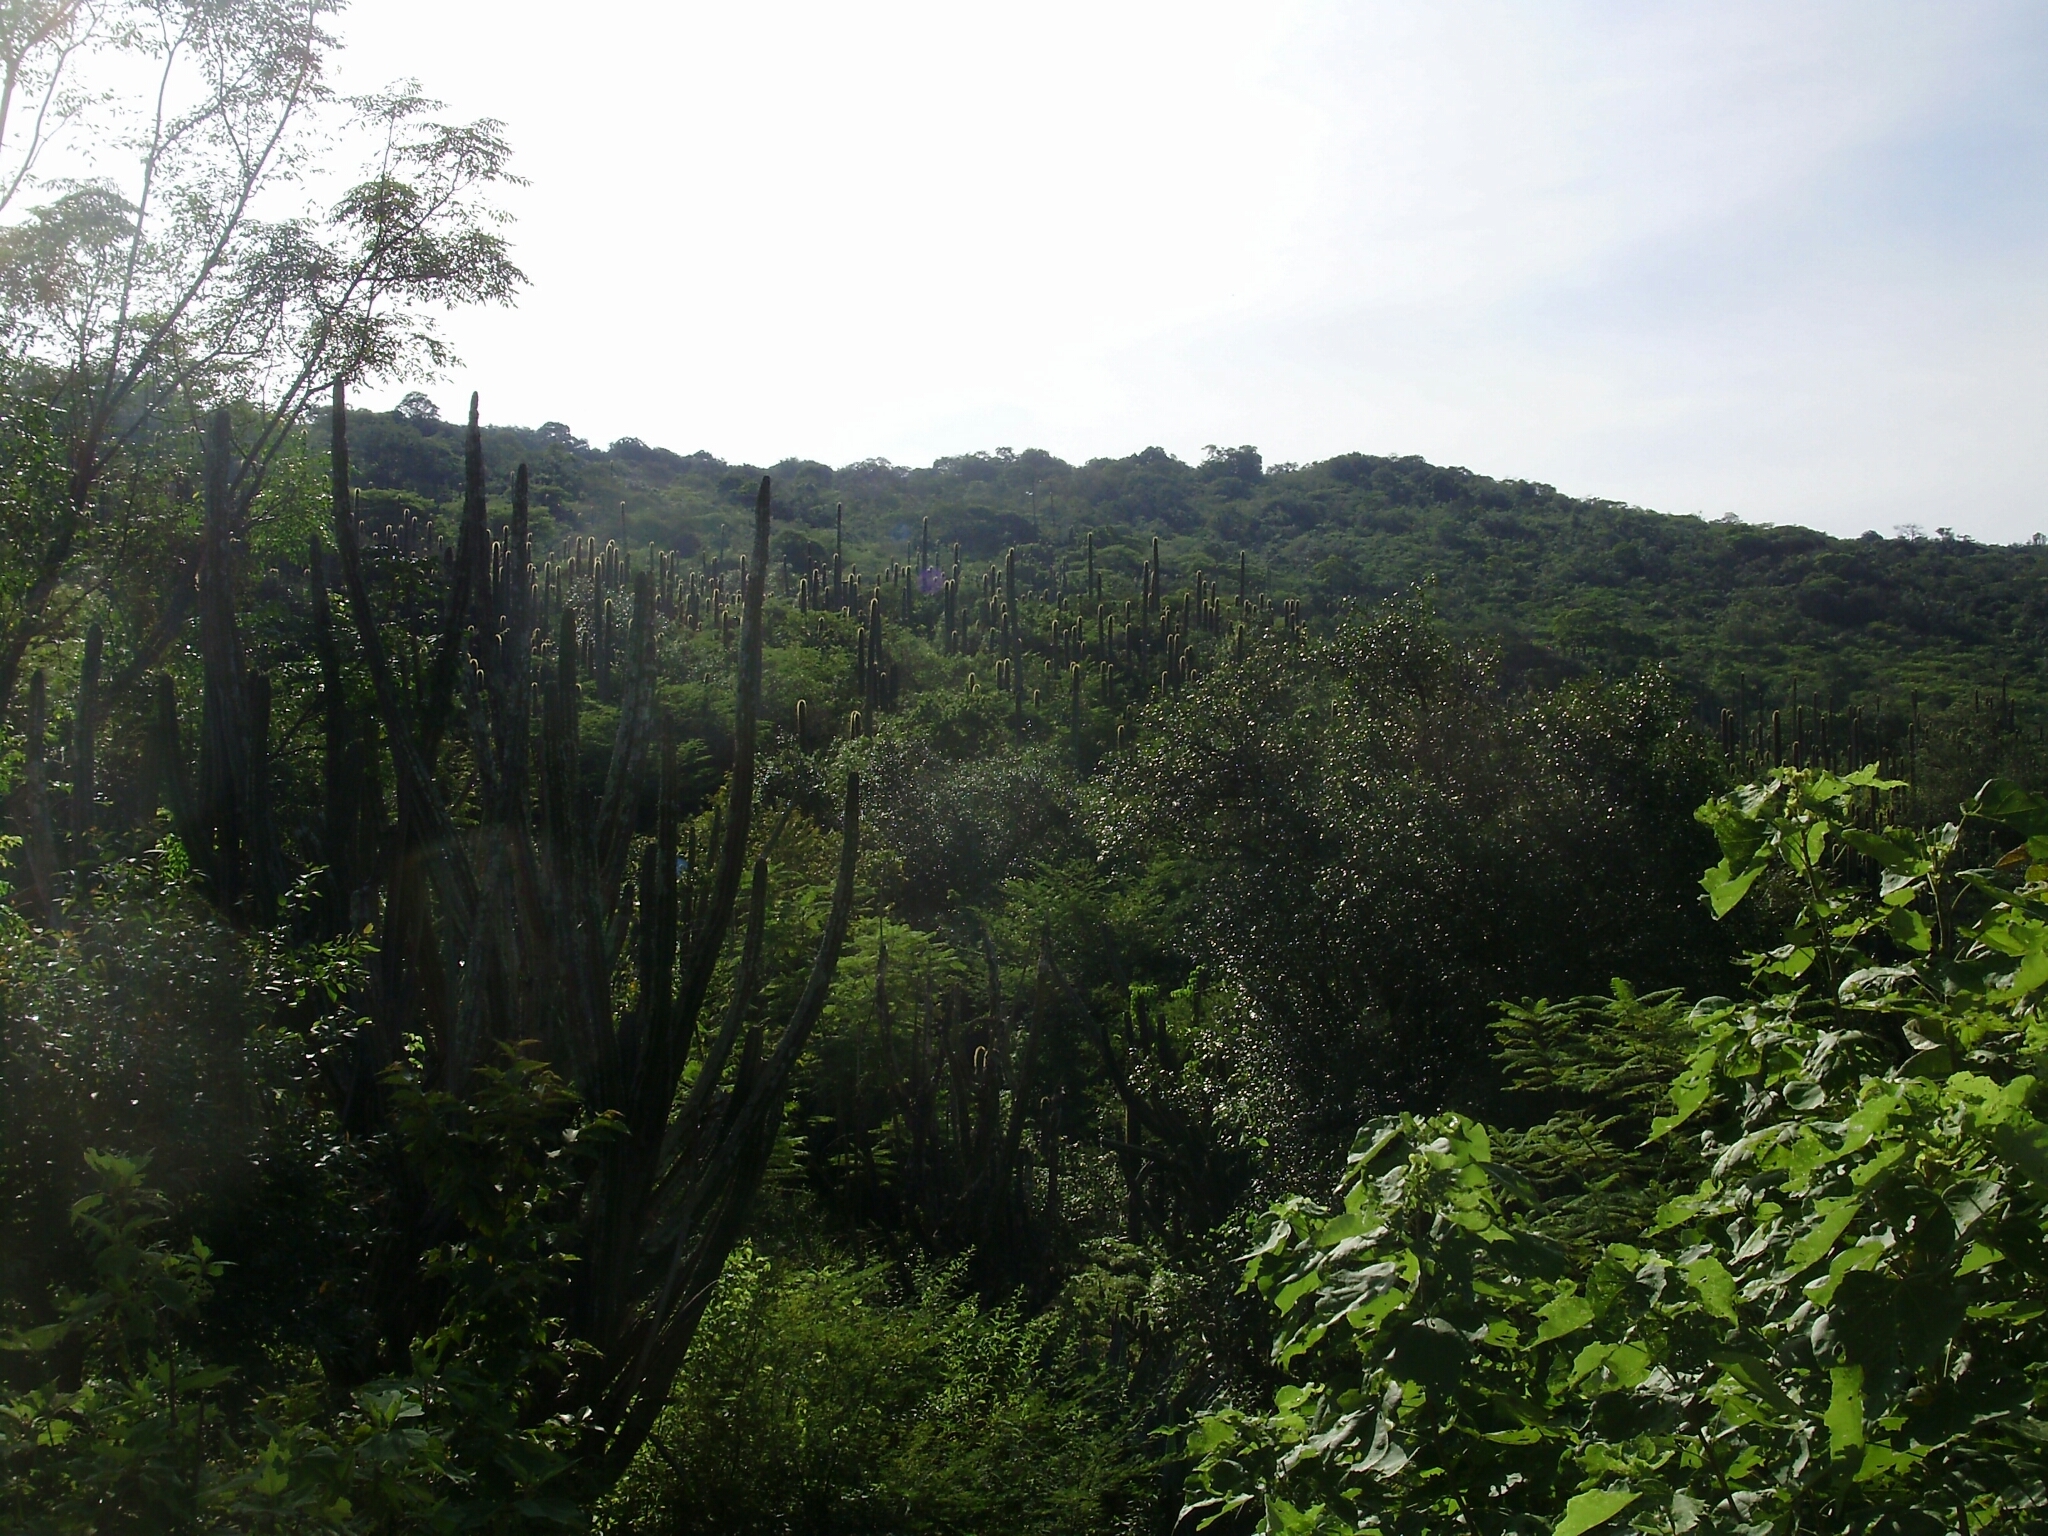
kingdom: Plantae
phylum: Tracheophyta
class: Magnoliopsida
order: Caryophyllales
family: Cactaceae
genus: Stenocereus
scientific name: Stenocereus queretaroensis
